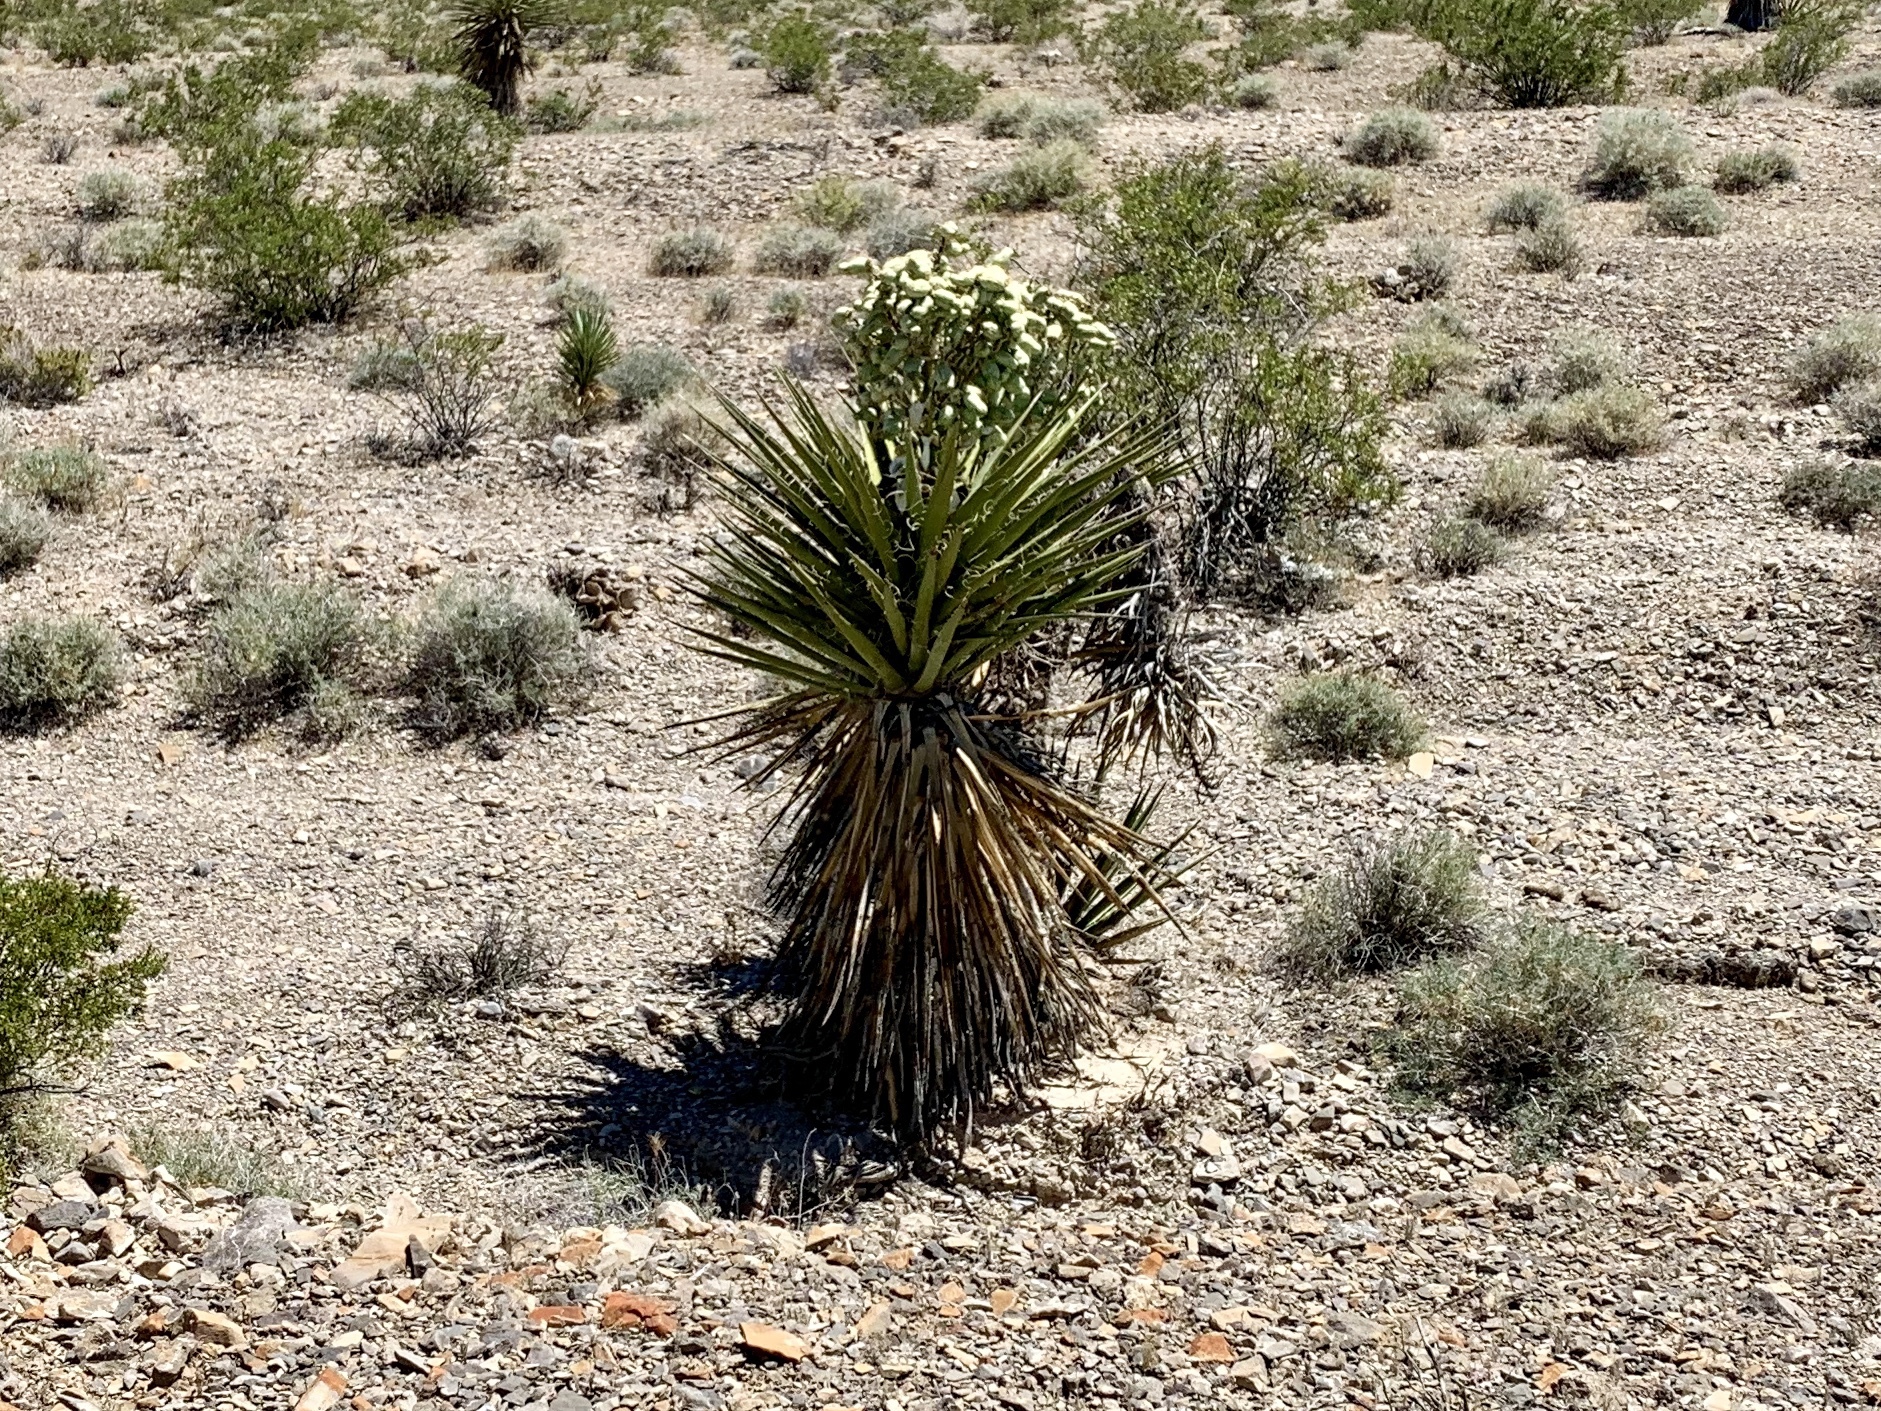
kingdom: Plantae
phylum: Tracheophyta
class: Liliopsida
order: Asparagales
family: Asparagaceae
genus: Yucca
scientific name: Yucca schidigera
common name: Mojave yucca
